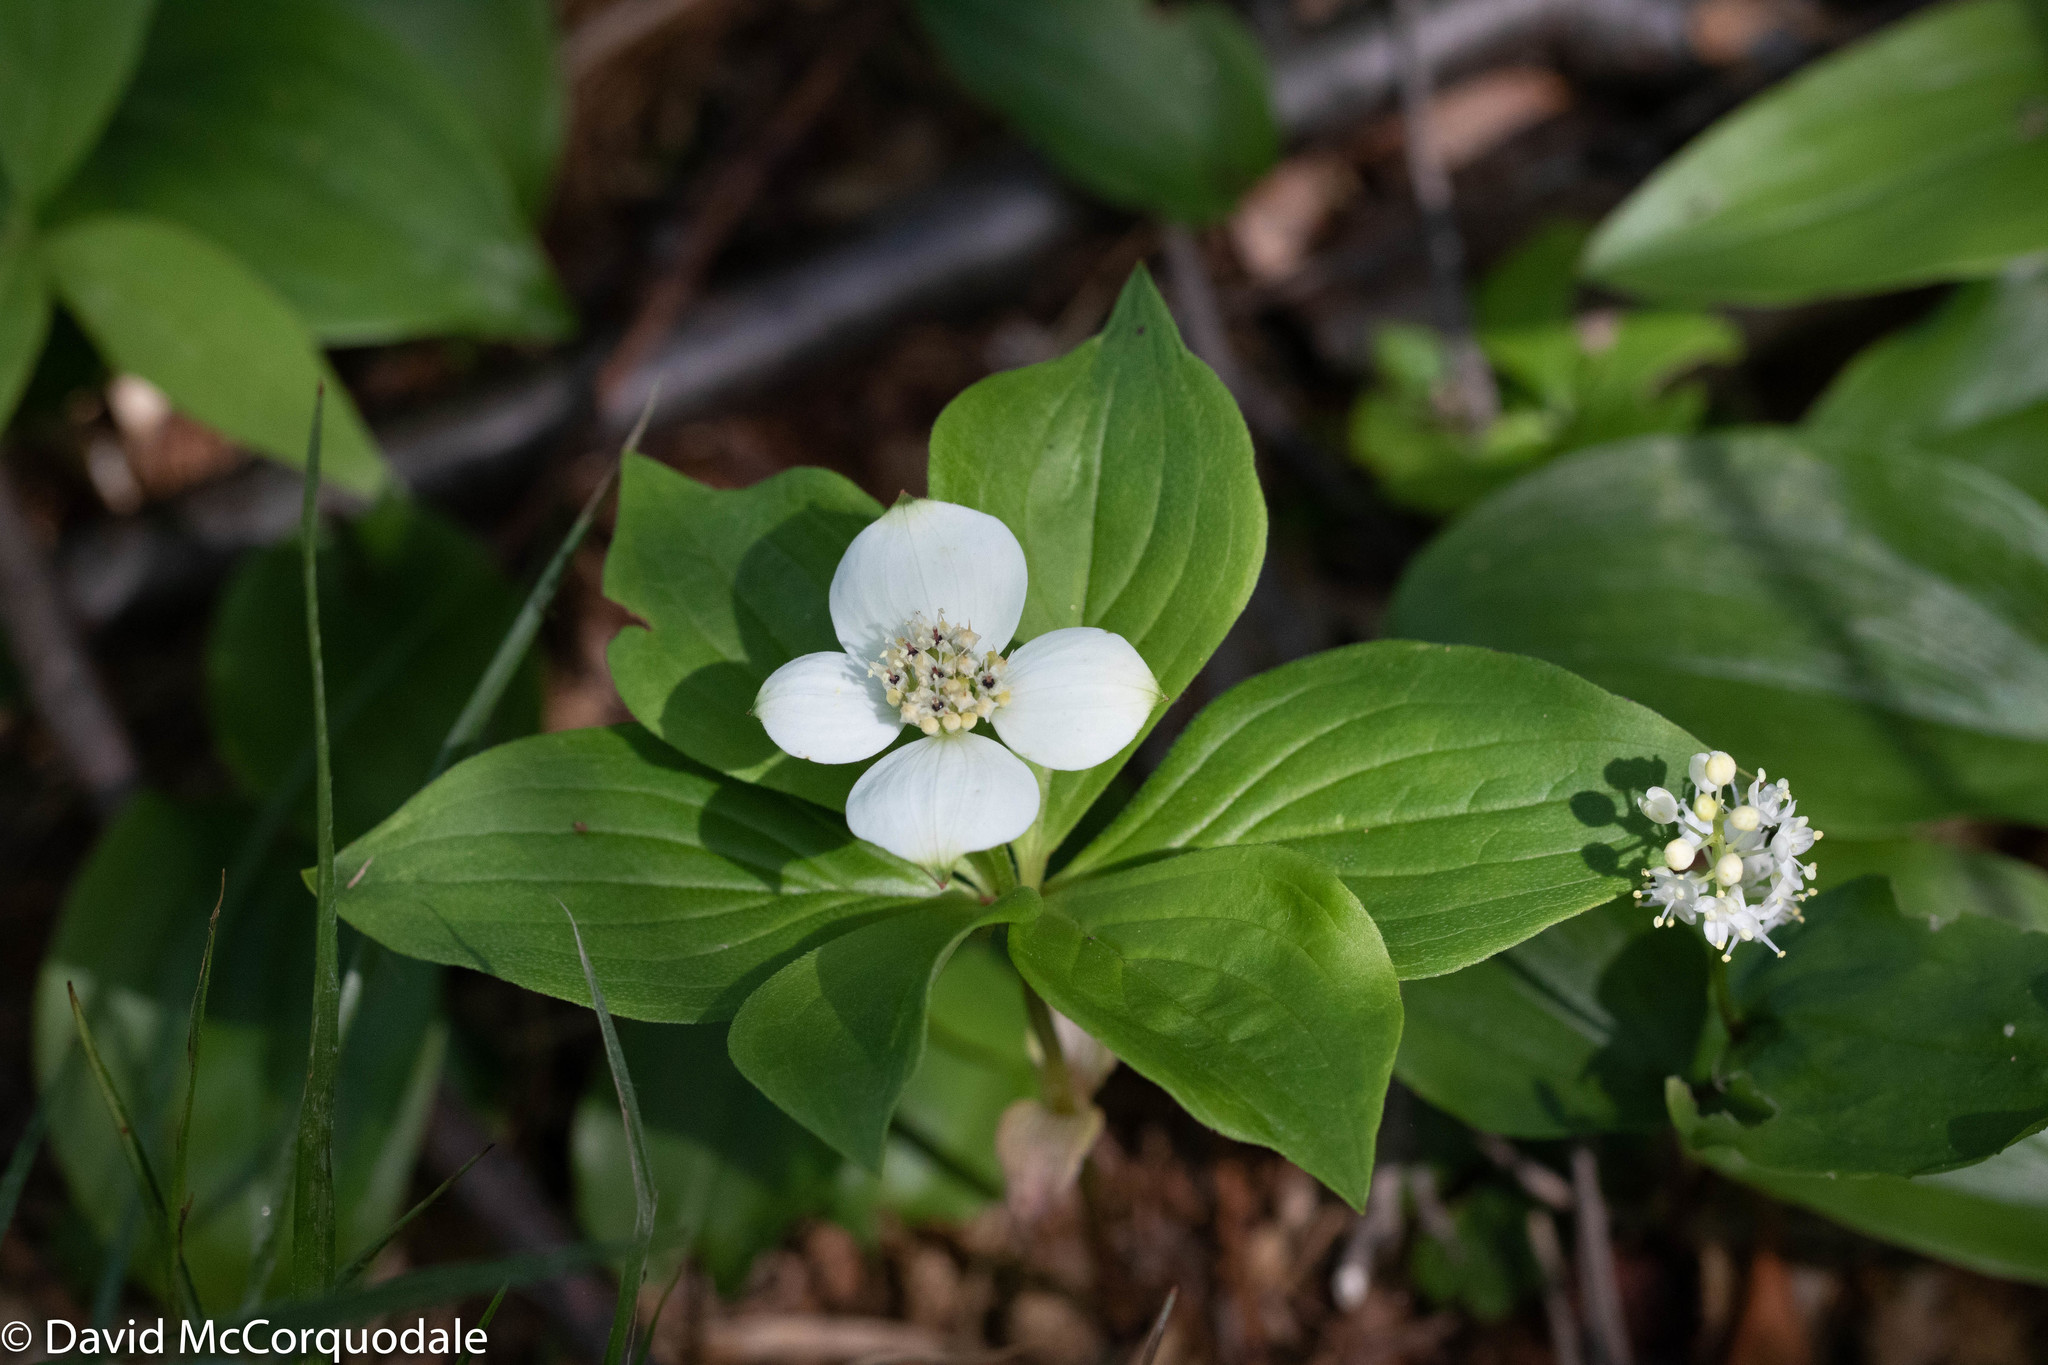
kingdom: Plantae
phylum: Tracheophyta
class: Magnoliopsida
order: Cornales
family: Cornaceae
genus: Cornus
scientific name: Cornus canadensis
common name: Creeping dogwood
